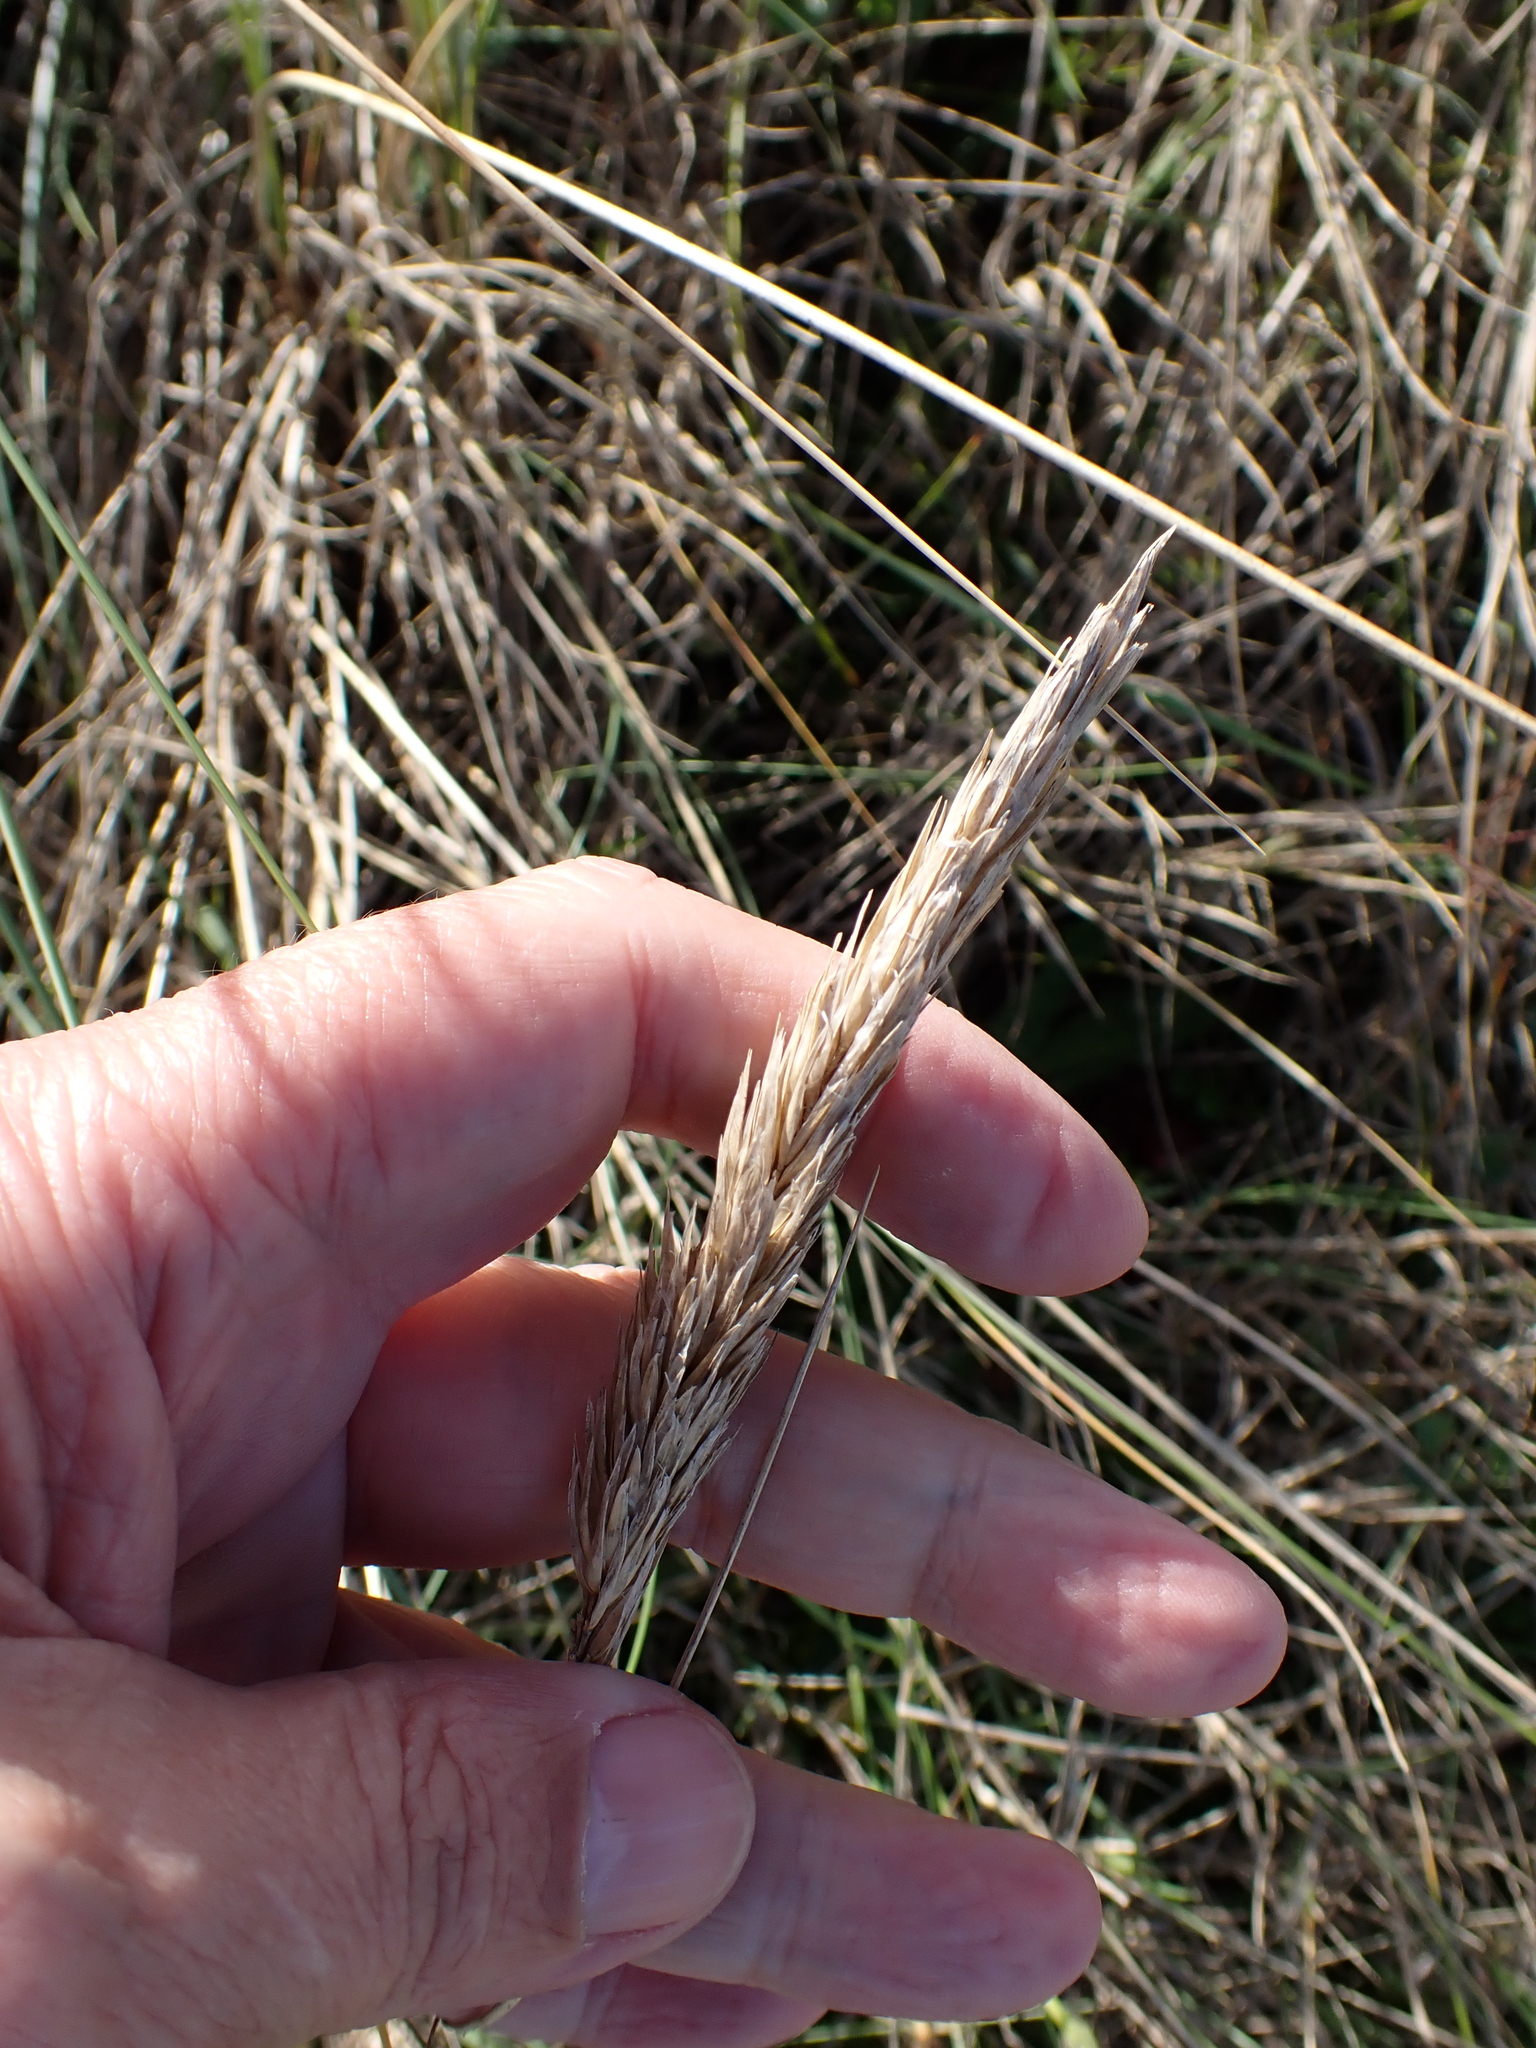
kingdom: Plantae
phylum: Tracheophyta
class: Liliopsida
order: Poales
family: Poaceae
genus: Calamagrostis
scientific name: Calamagrostis arenaria
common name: European beachgrass
